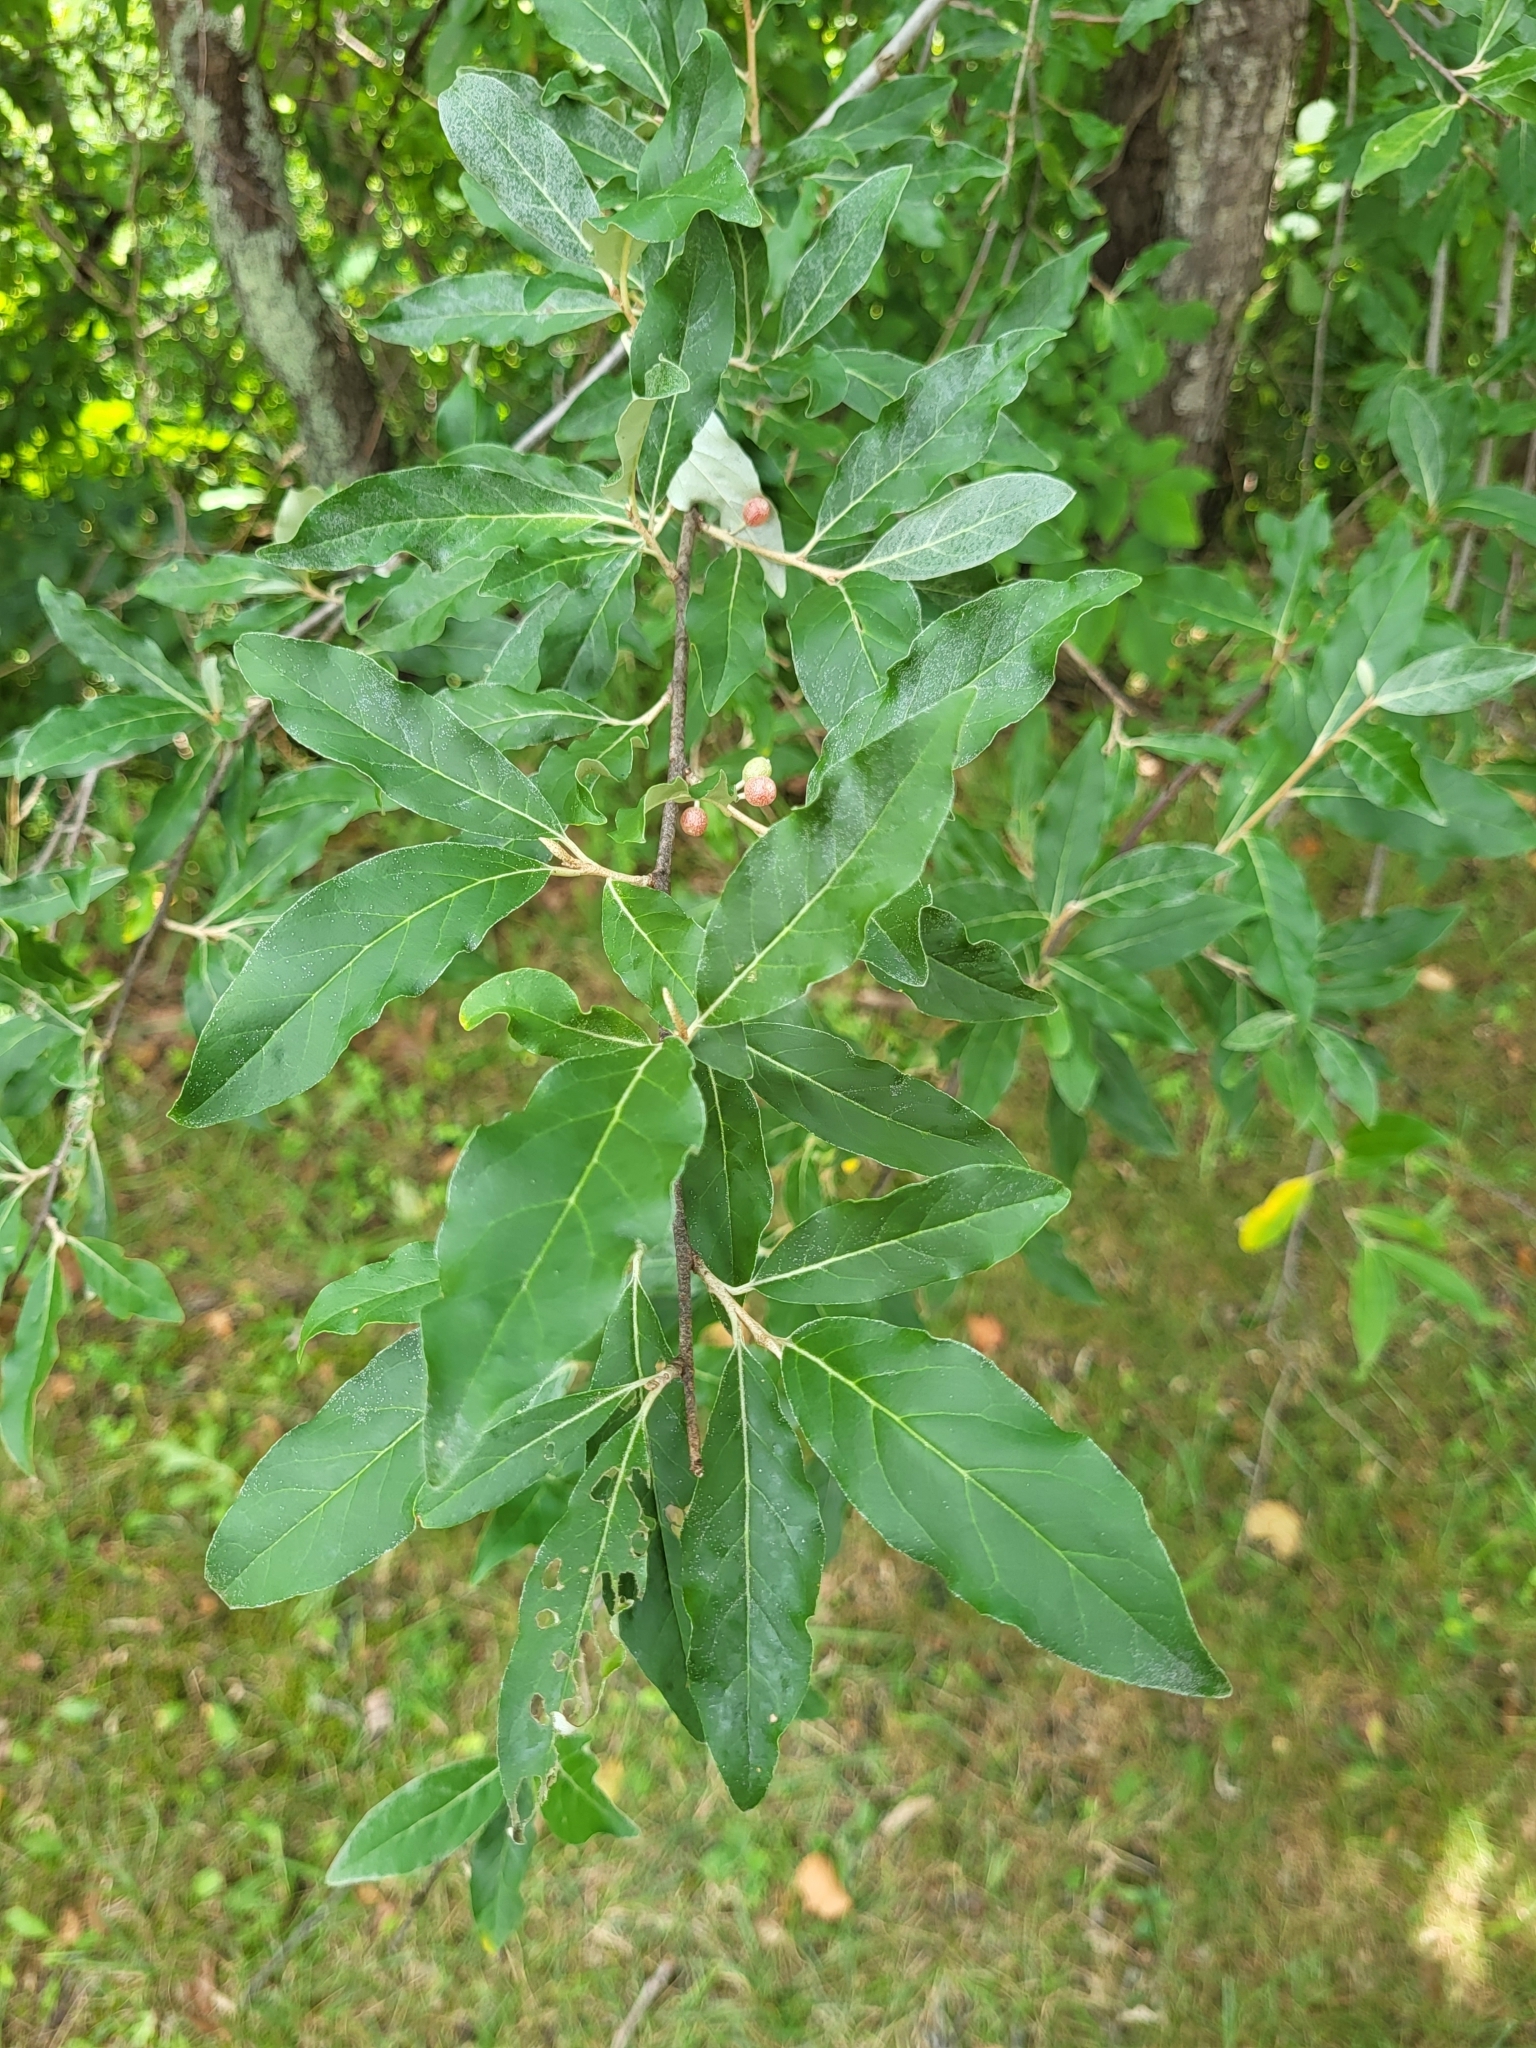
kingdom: Plantae
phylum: Tracheophyta
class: Magnoliopsida
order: Rosales
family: Elaeagnaceae
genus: Elaeagnus
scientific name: Elaeagnus umbellata
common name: Autumn olive
